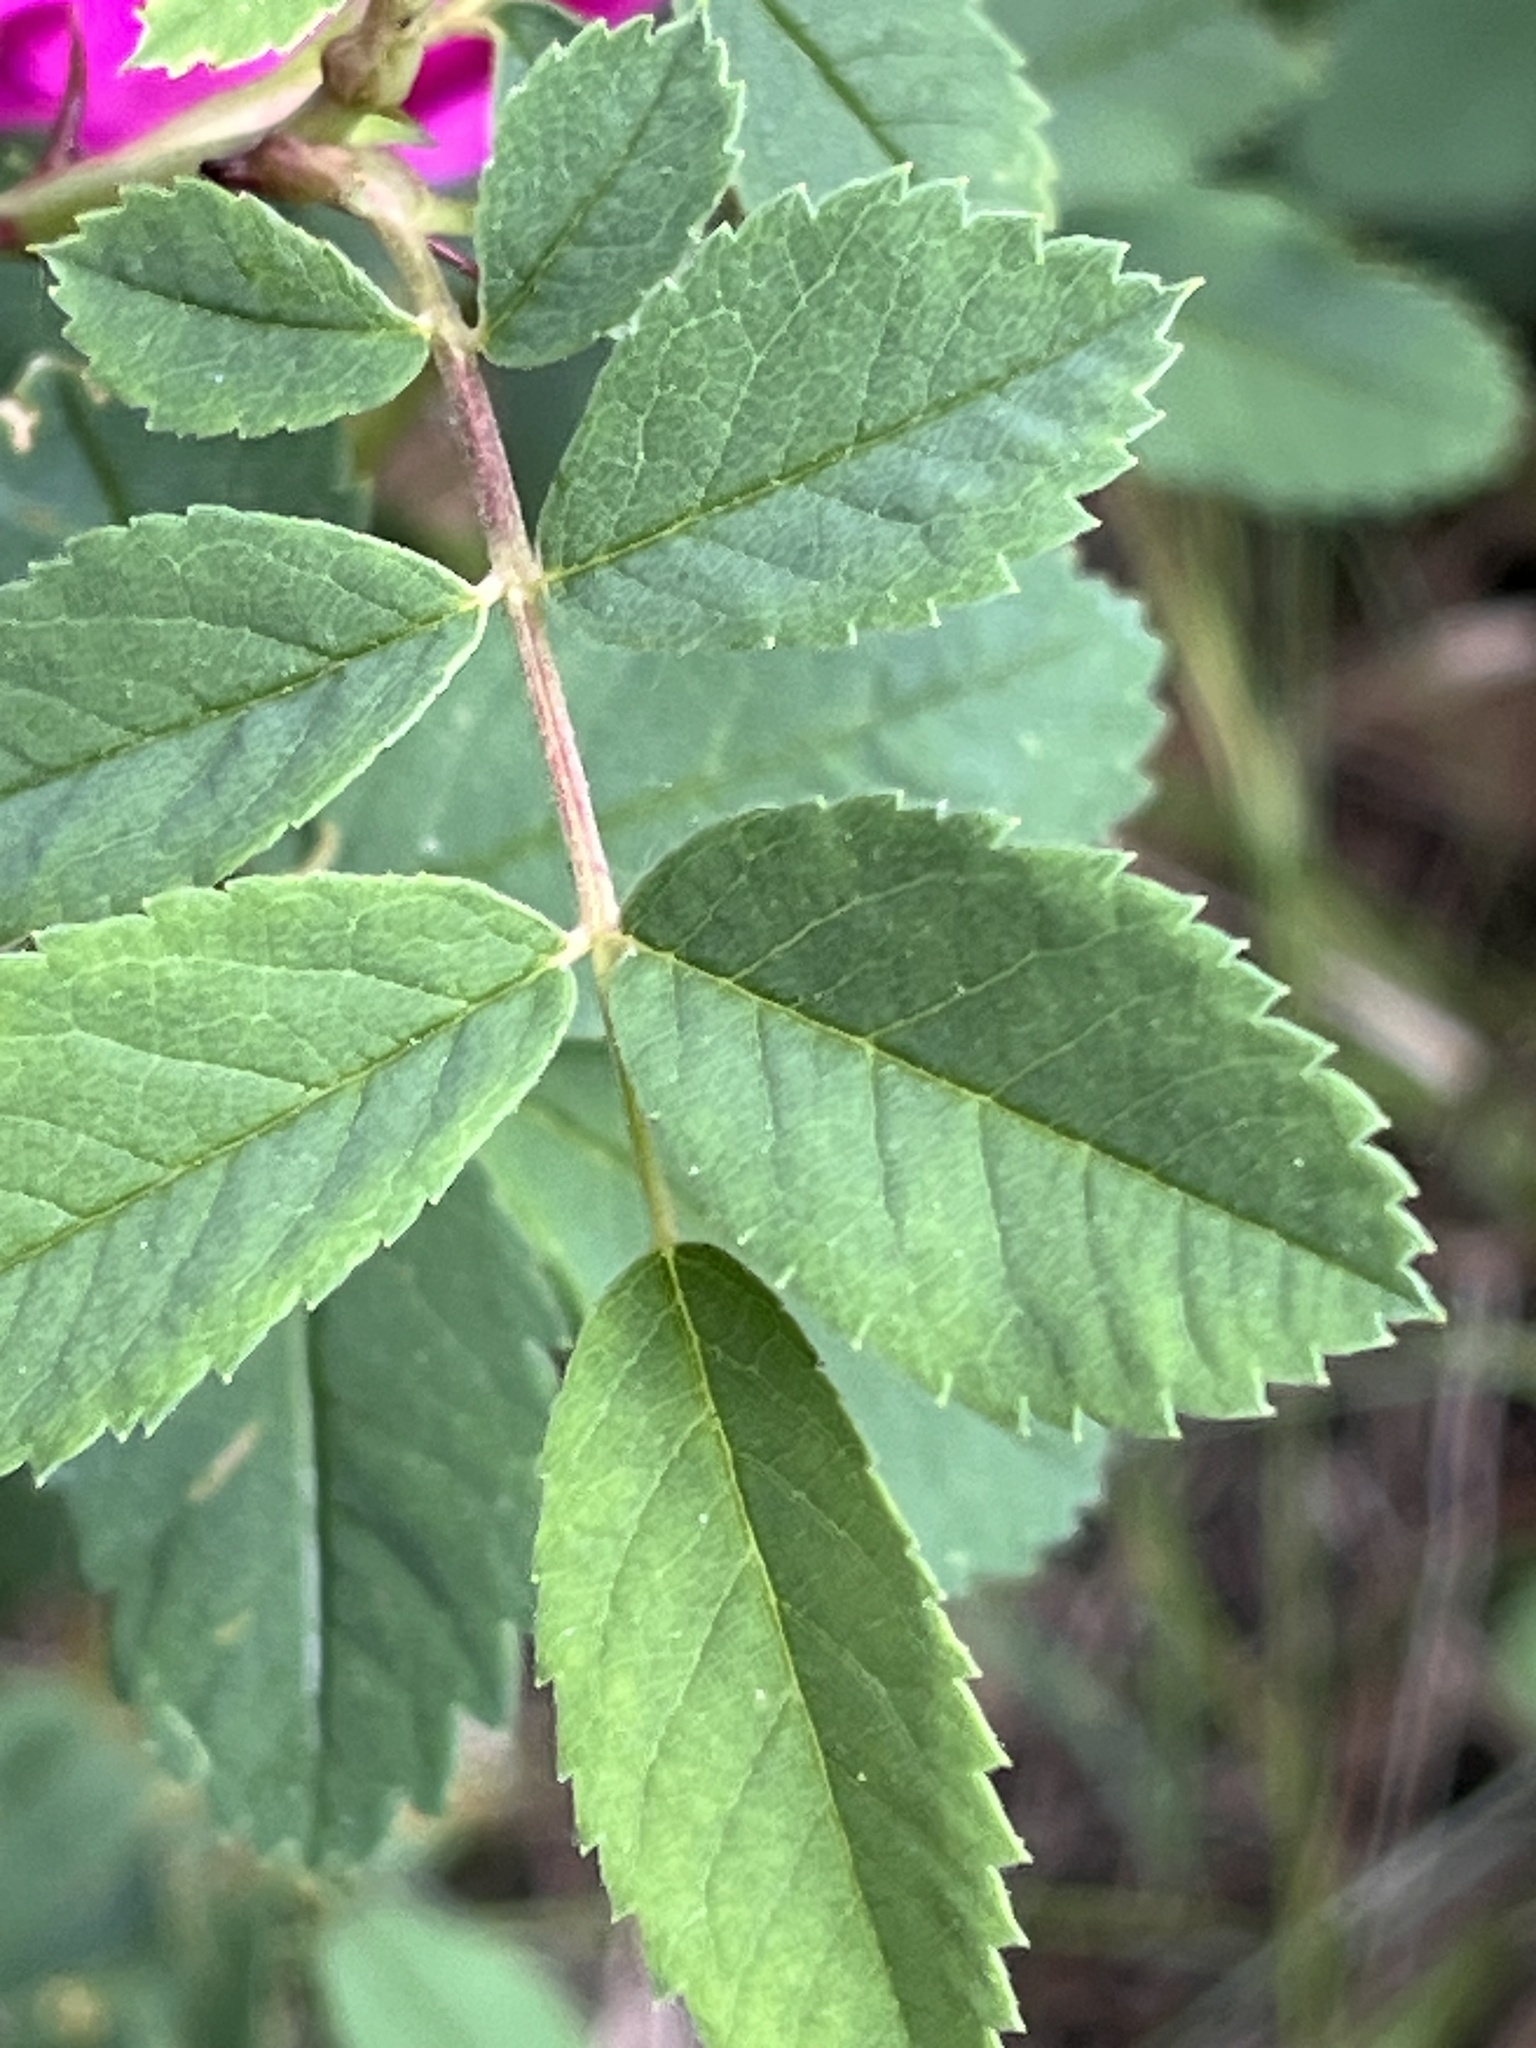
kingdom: Plantae
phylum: Tracheophyta
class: Magnoliopsida
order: Rosales
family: Rosaceae
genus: Rosa
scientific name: Rosa woodsii
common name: Woods's rose
